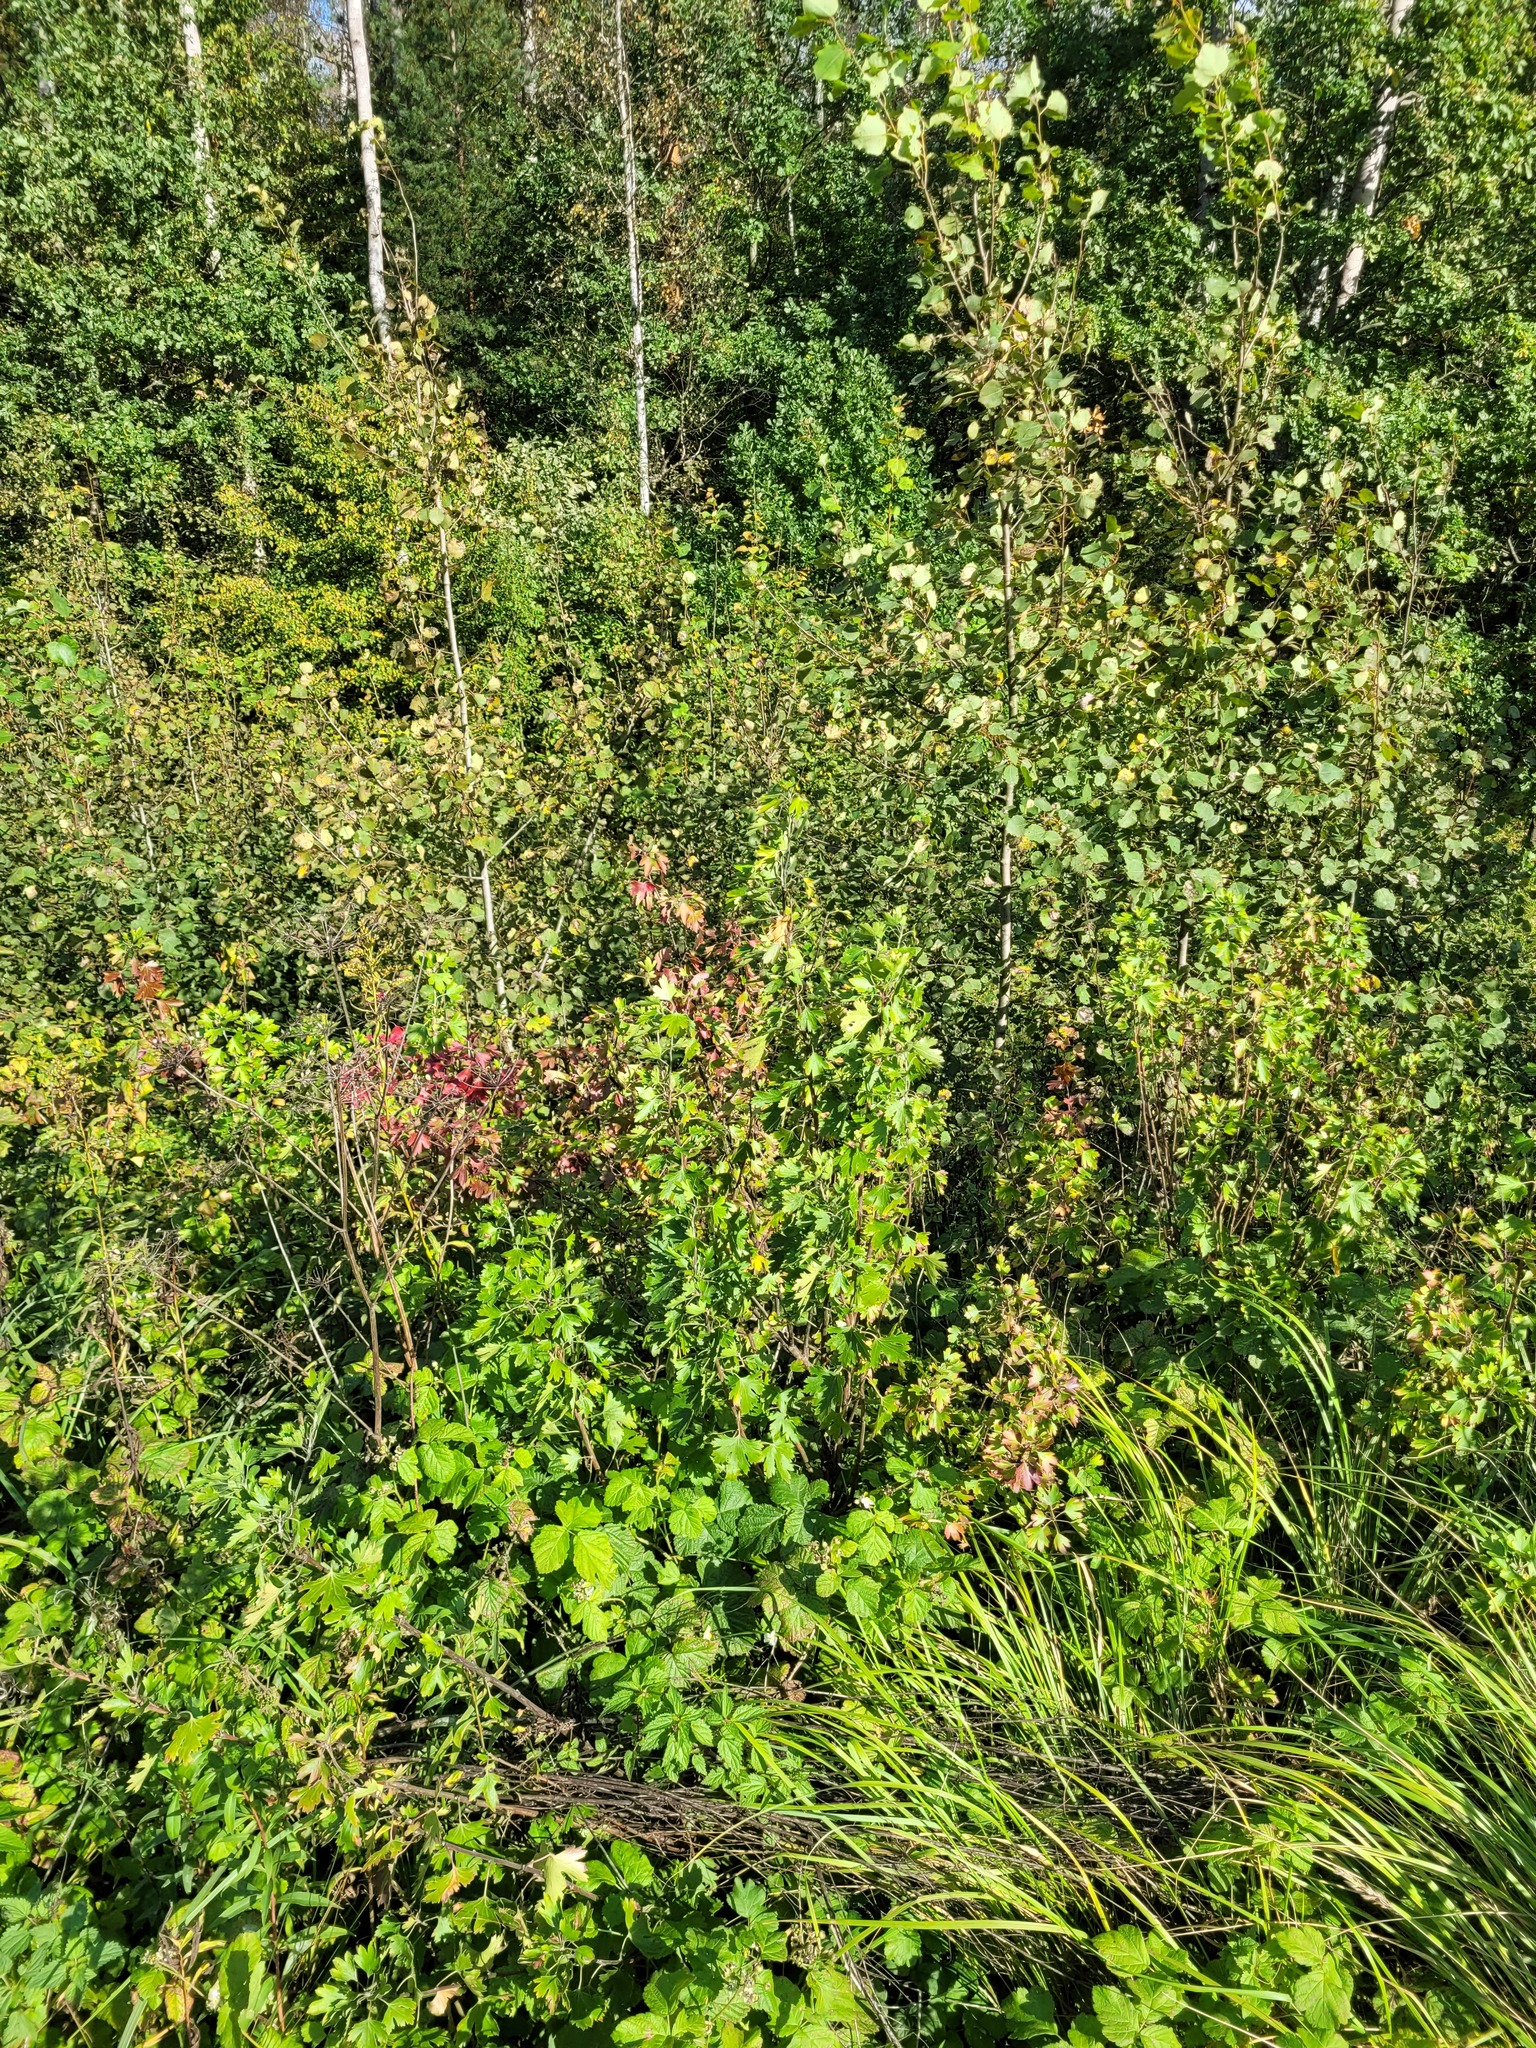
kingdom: Plantae
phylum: Tracheophyta
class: Magnoliopsida
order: Saxifragales
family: Grossulariaceae
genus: Ribes
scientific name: Ribes aureum
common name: Golden currant
